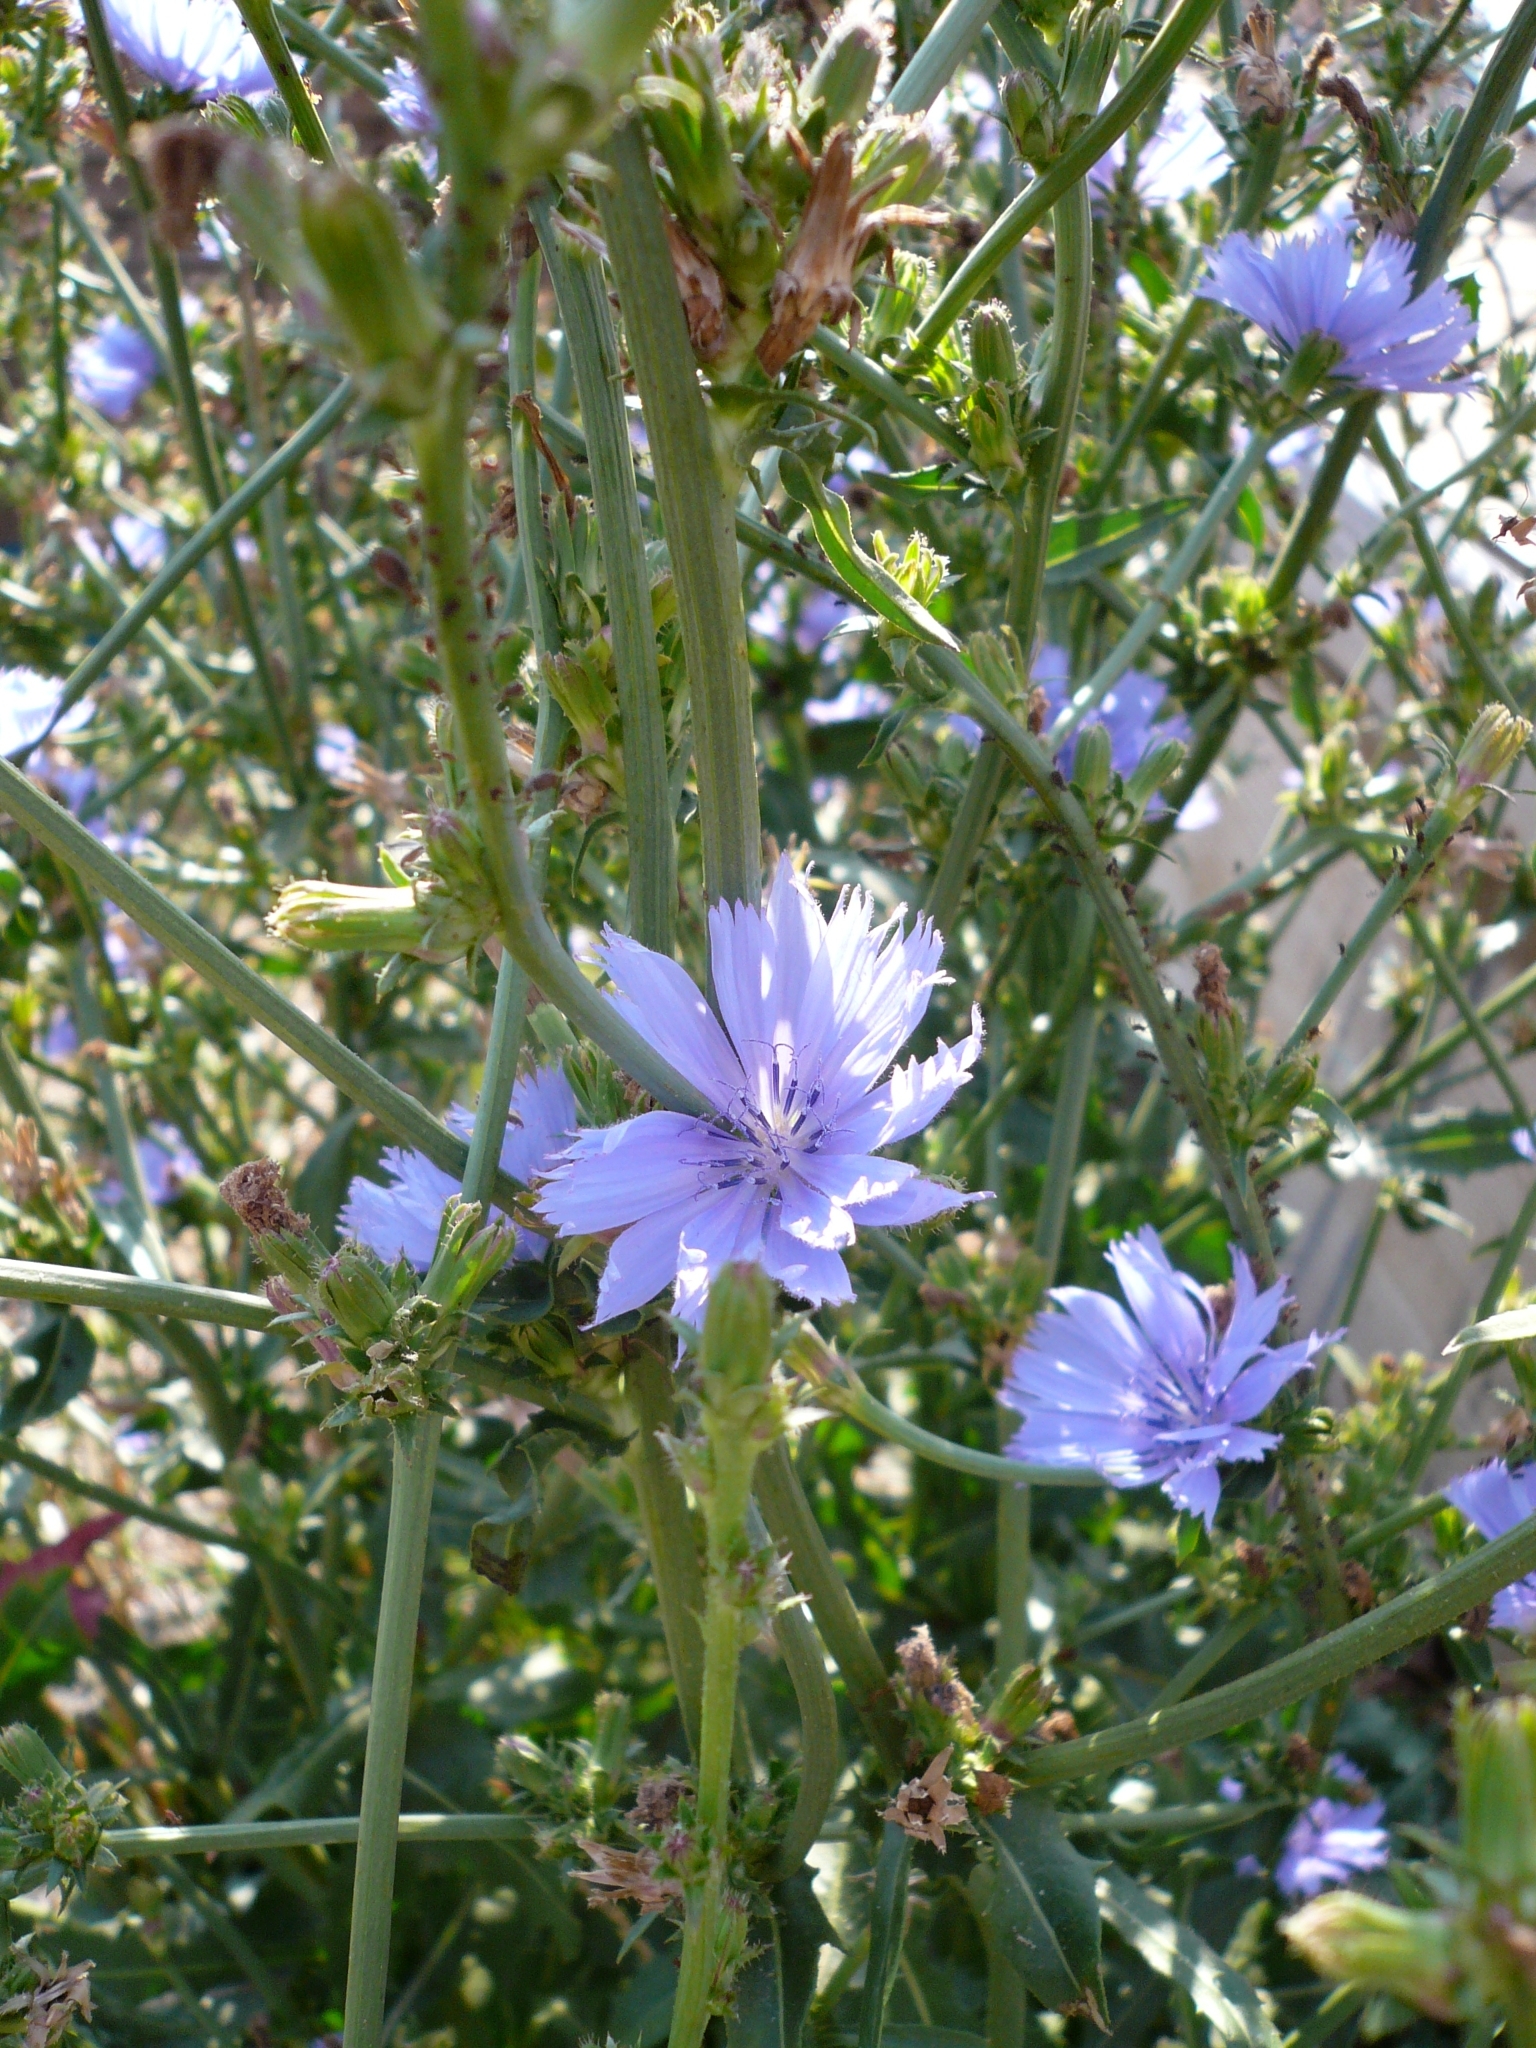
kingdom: Plantae
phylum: Tracheophyta
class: Magnoliopsida
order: Asterales
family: Asteraceae
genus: Cichorium
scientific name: Cichorium intybus
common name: Chicory
